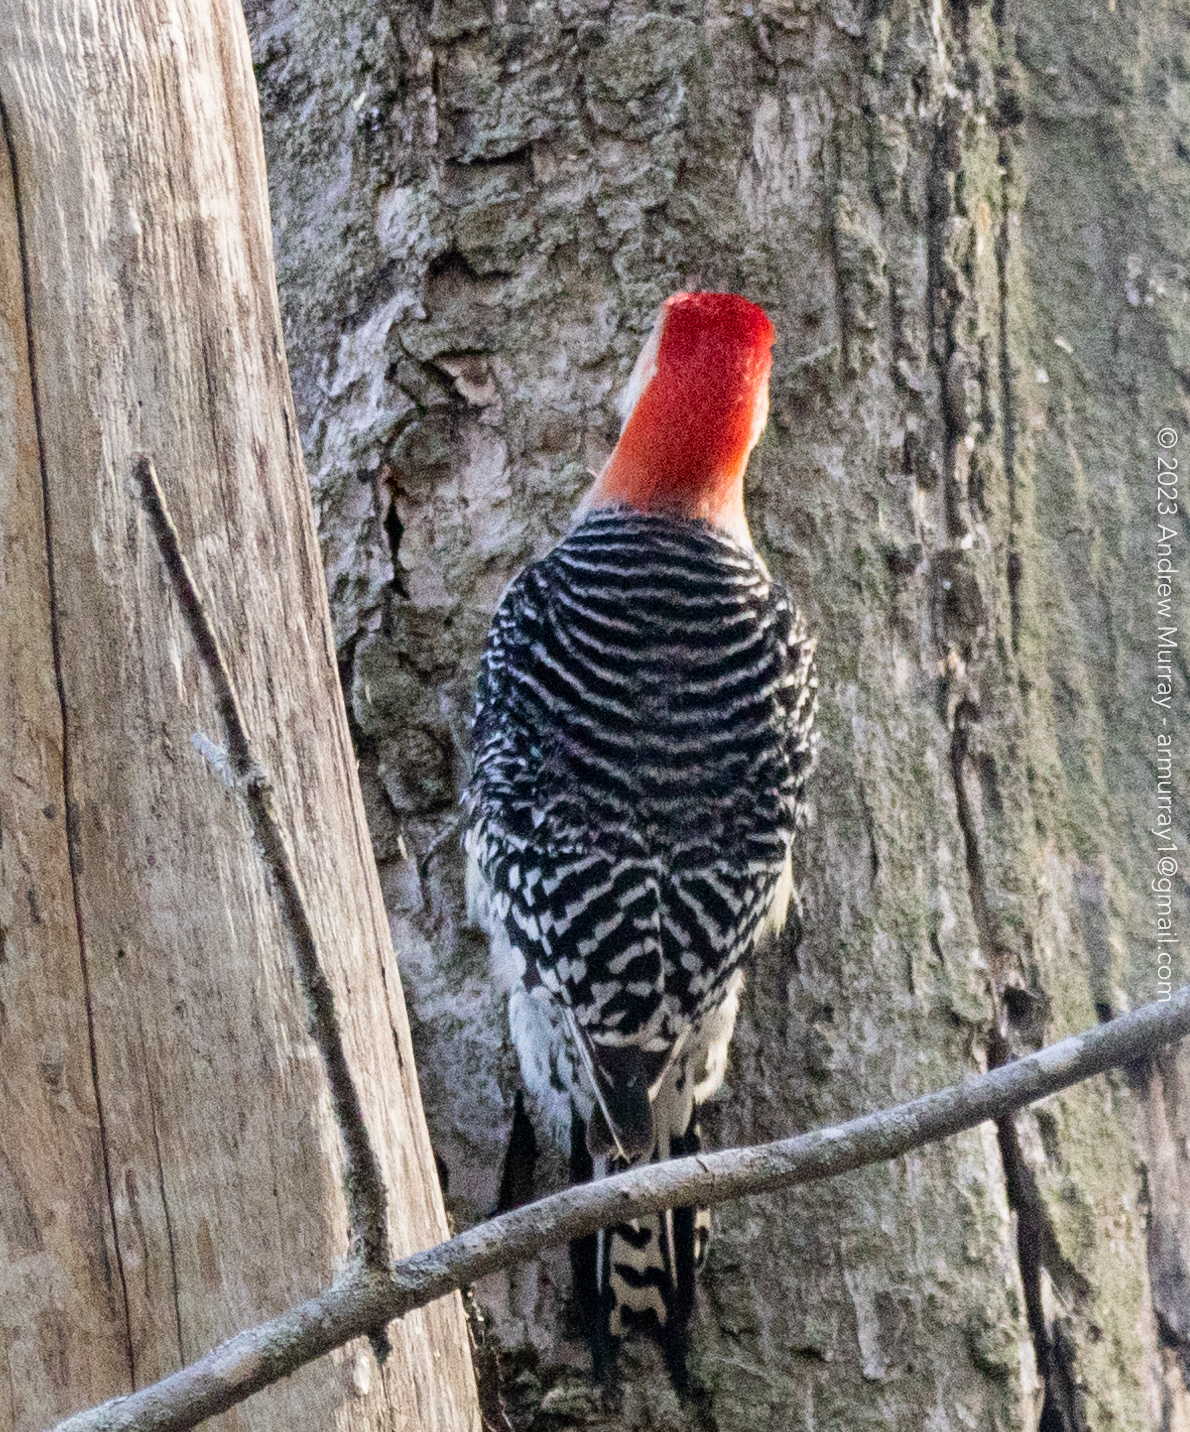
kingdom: Animalia
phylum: Chordata
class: Aves
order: Piciformes
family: Picidae
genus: Melanerpes
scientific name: Melanerpes carolinus
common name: Red-bellied woodpecker
